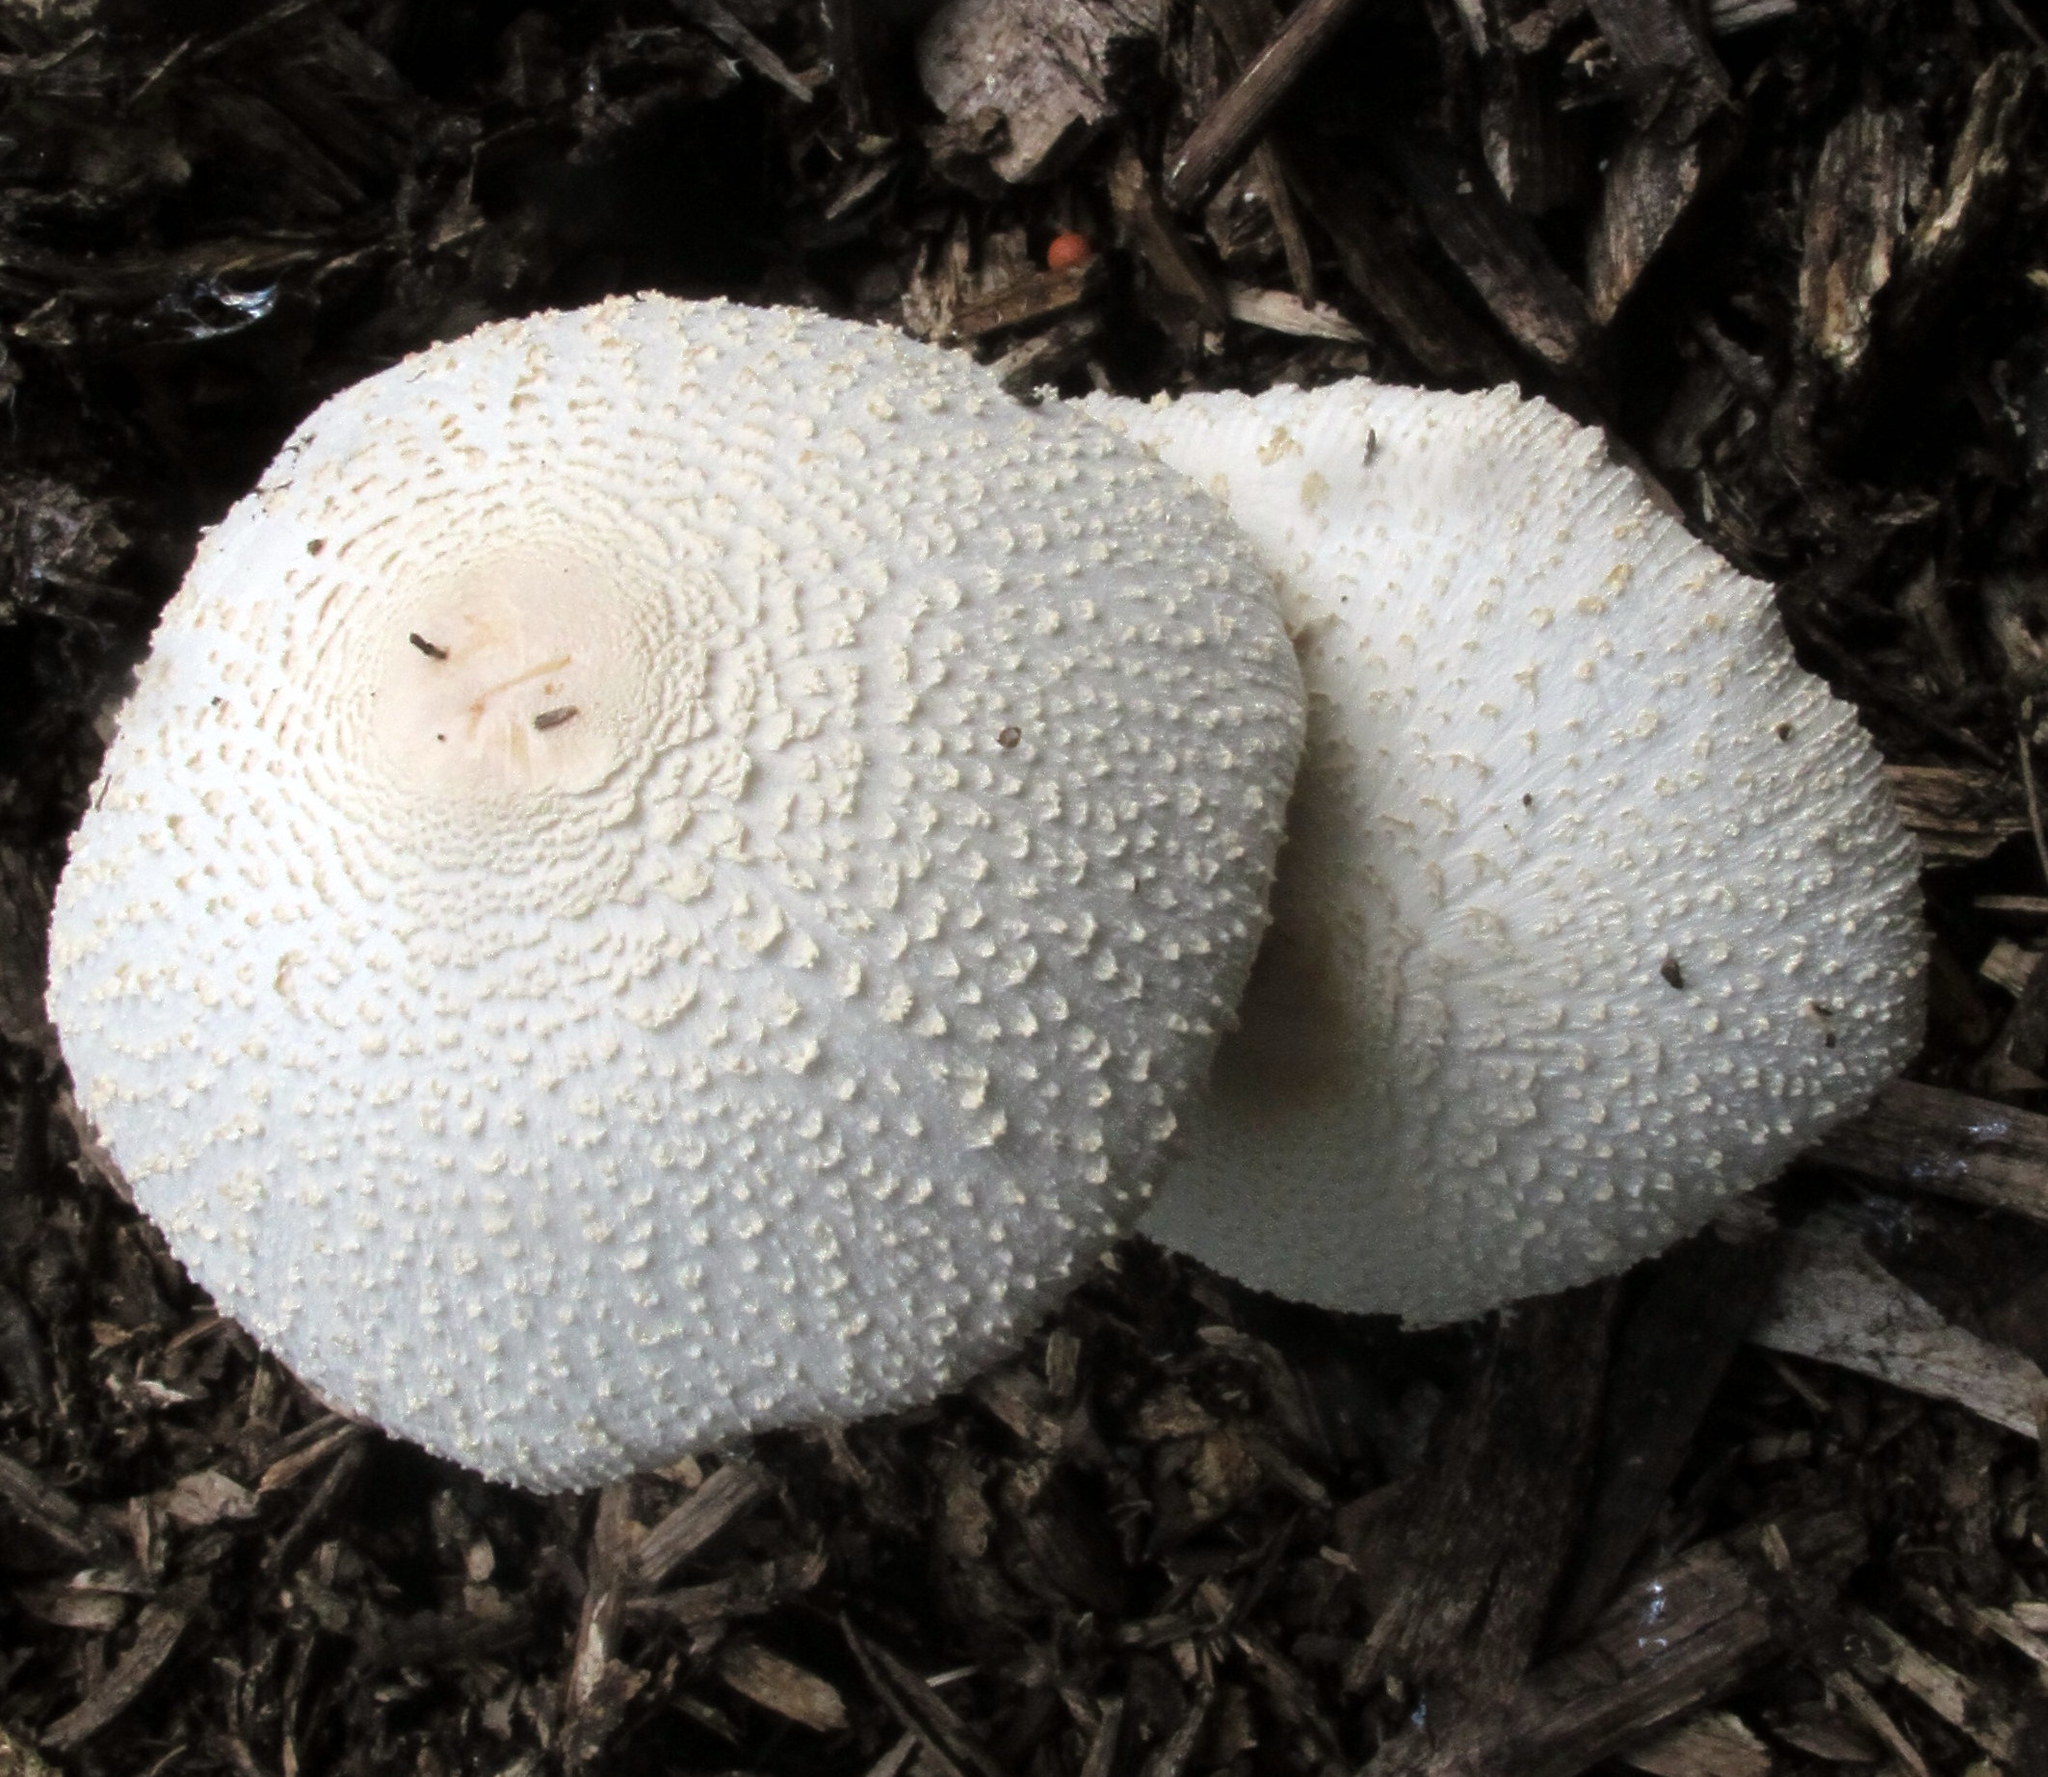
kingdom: Fungi
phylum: Basidiomycota
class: Agaricomycetes
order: Agaricales
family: Agaricaceae
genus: Leucocoprinus
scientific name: Leucocoprinus cepistipes
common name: Onion-stalk parasol
